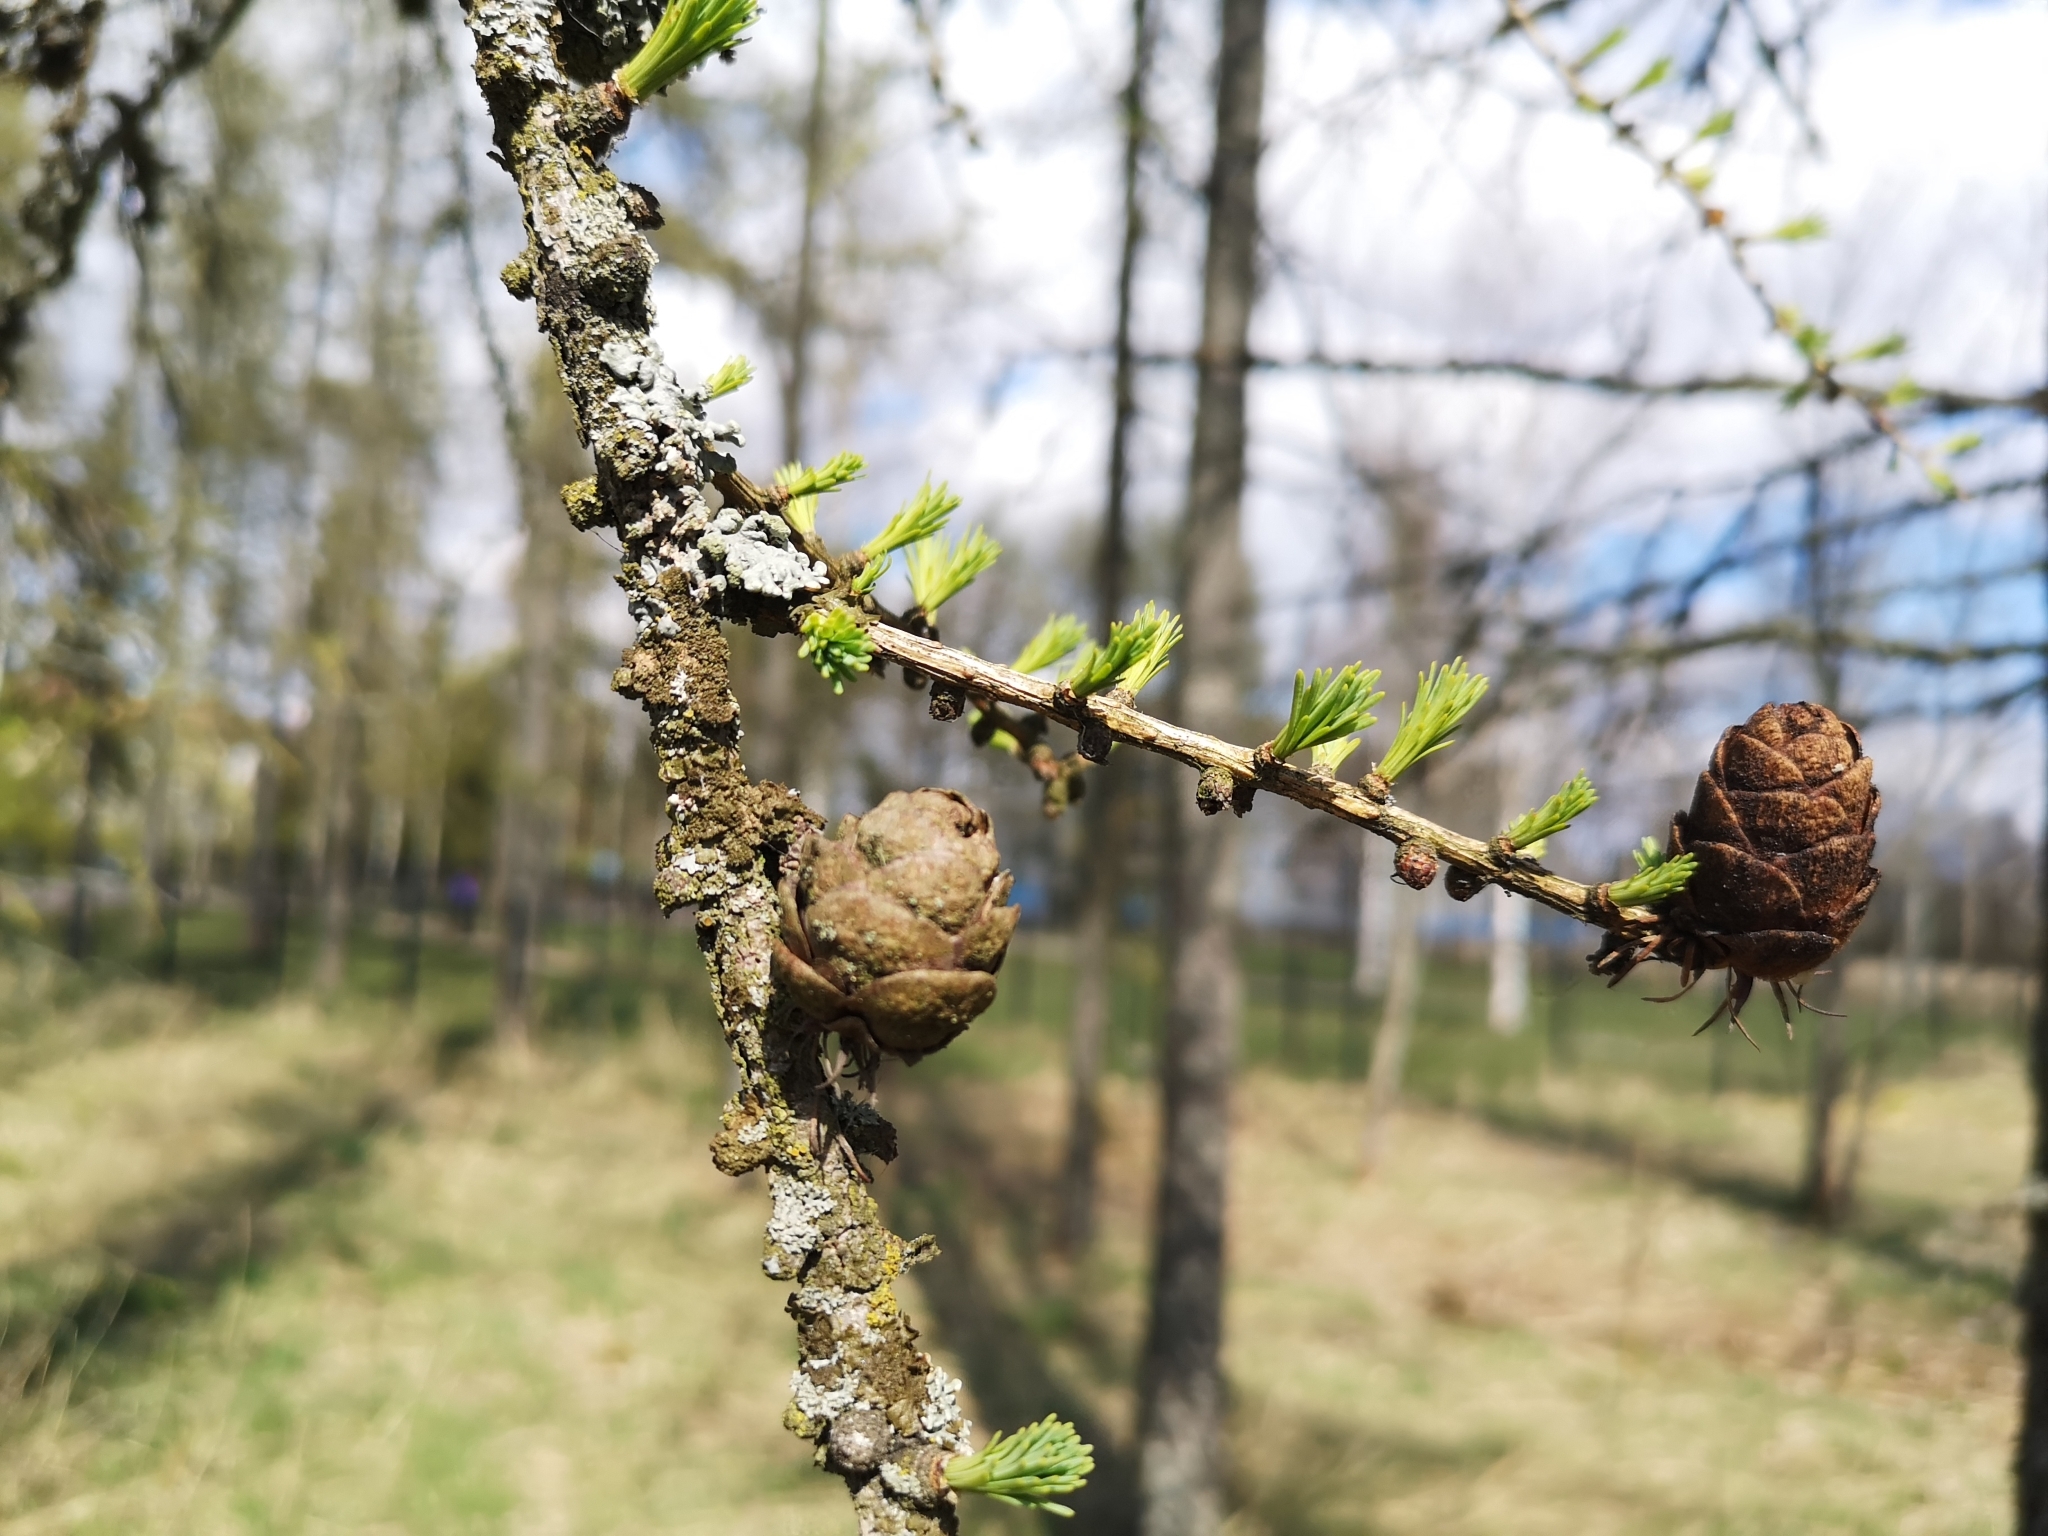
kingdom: Plantae
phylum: Tracheophyta
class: Pinopsida
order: Pinales
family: Pinaceae
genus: Larix
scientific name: Larix decidua
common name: European larch
